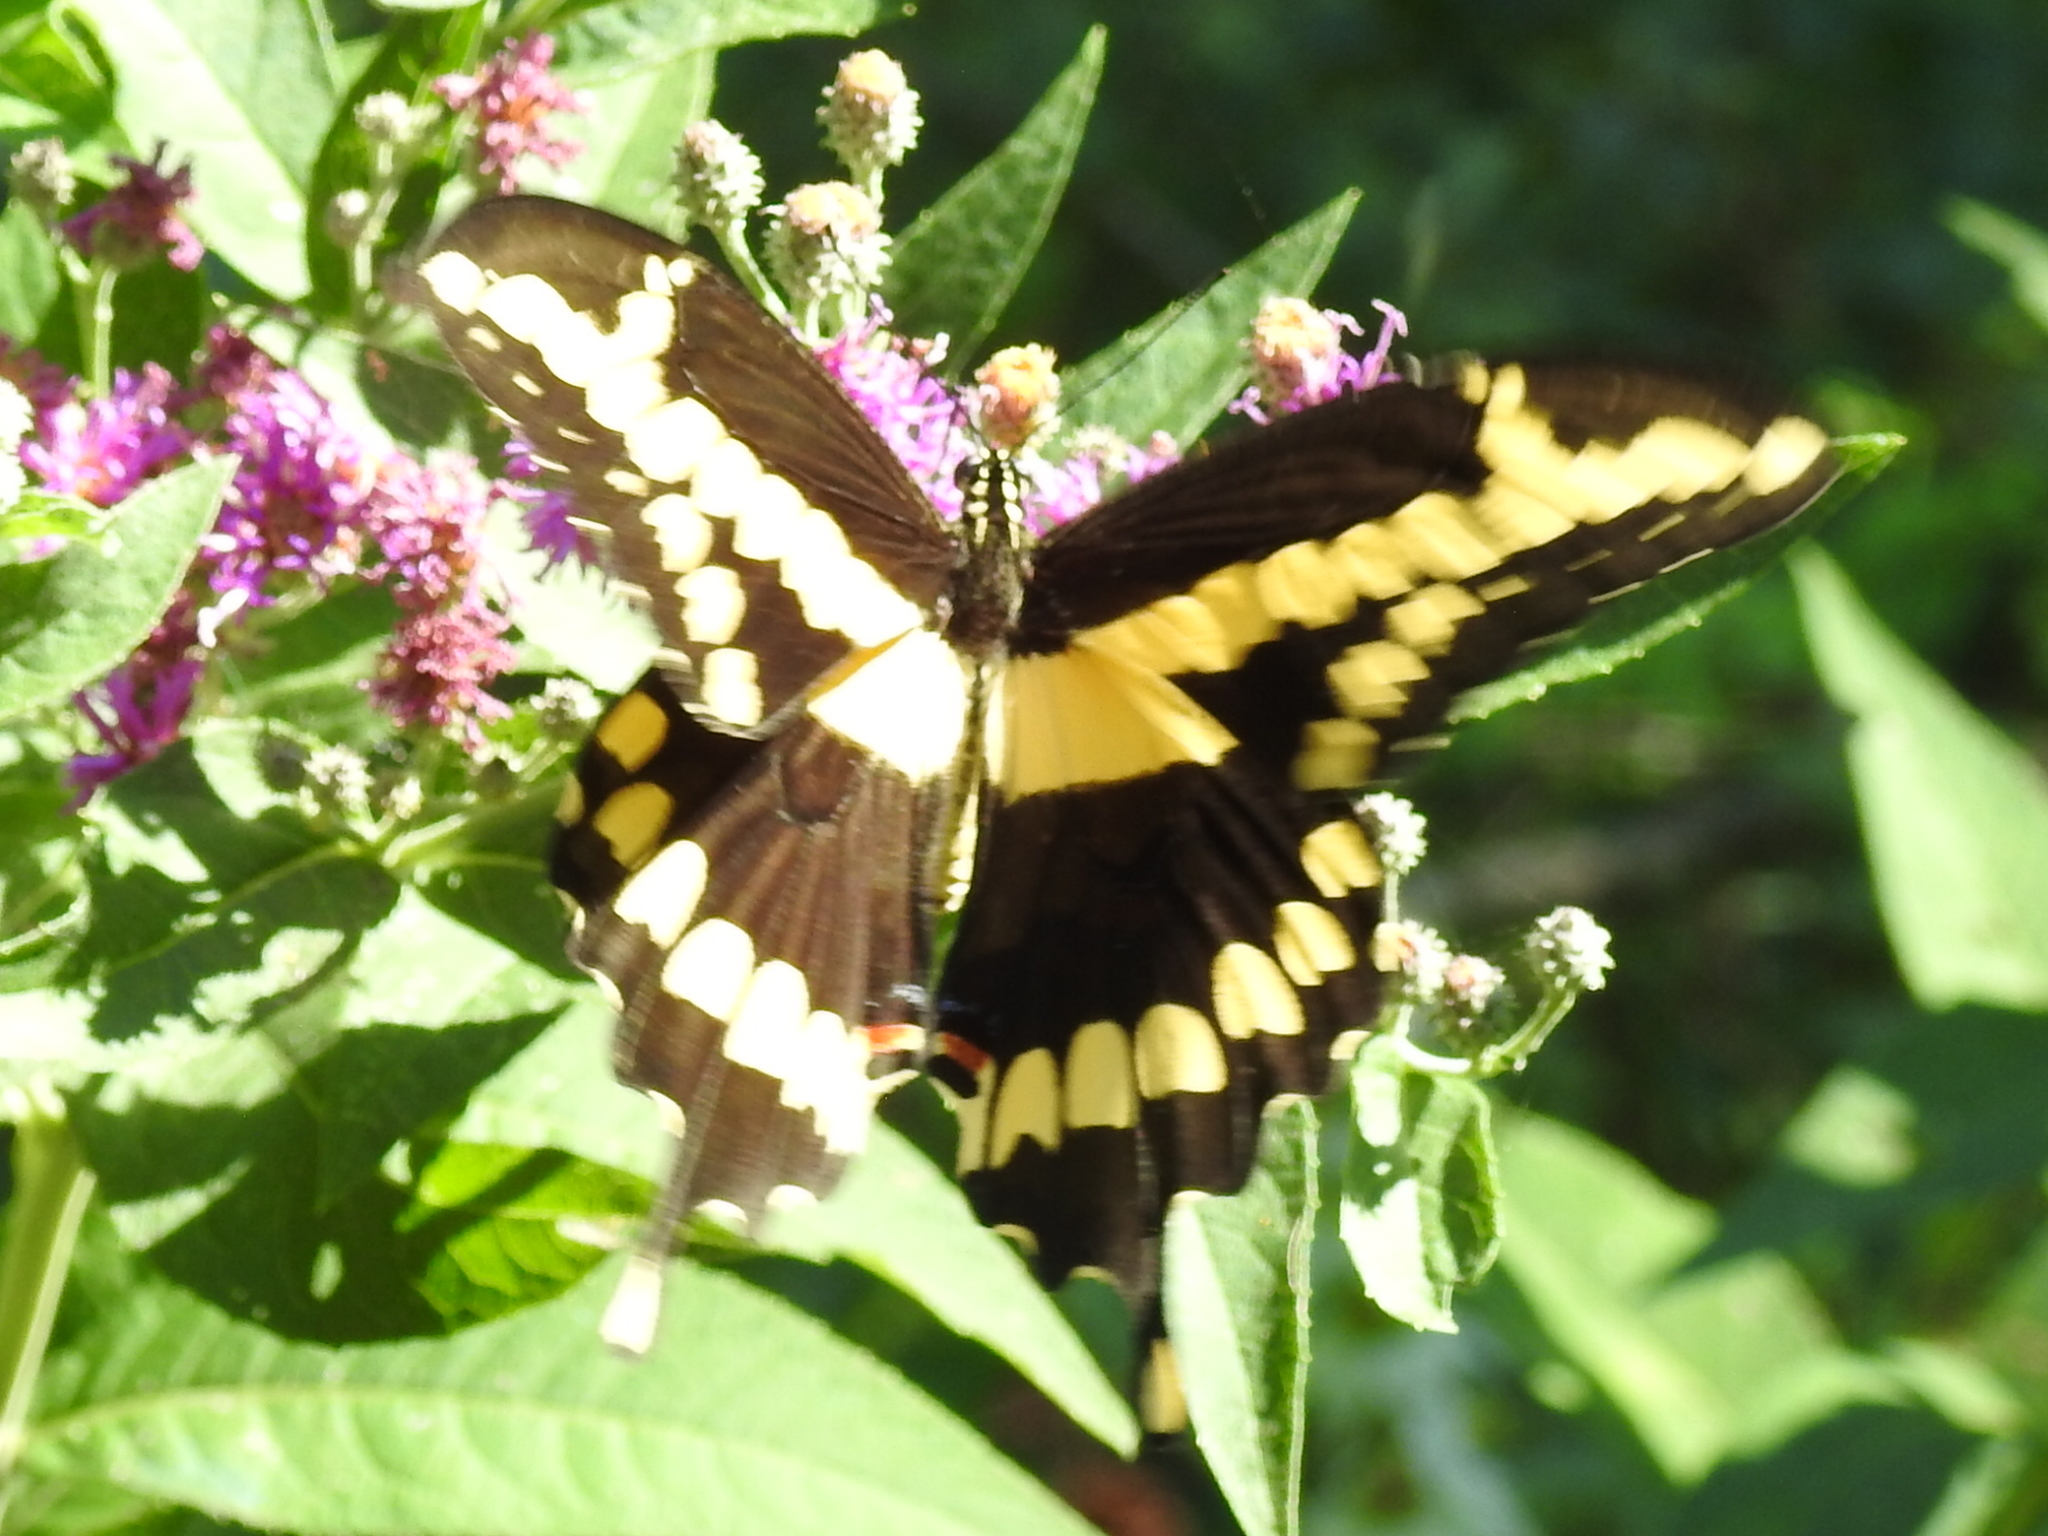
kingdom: Animalia
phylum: Arthropoda
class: Insecta
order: Lepidoptera
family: Papilionidae
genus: Papilio
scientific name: Papilio cresphontes
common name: Giant swallowtail
